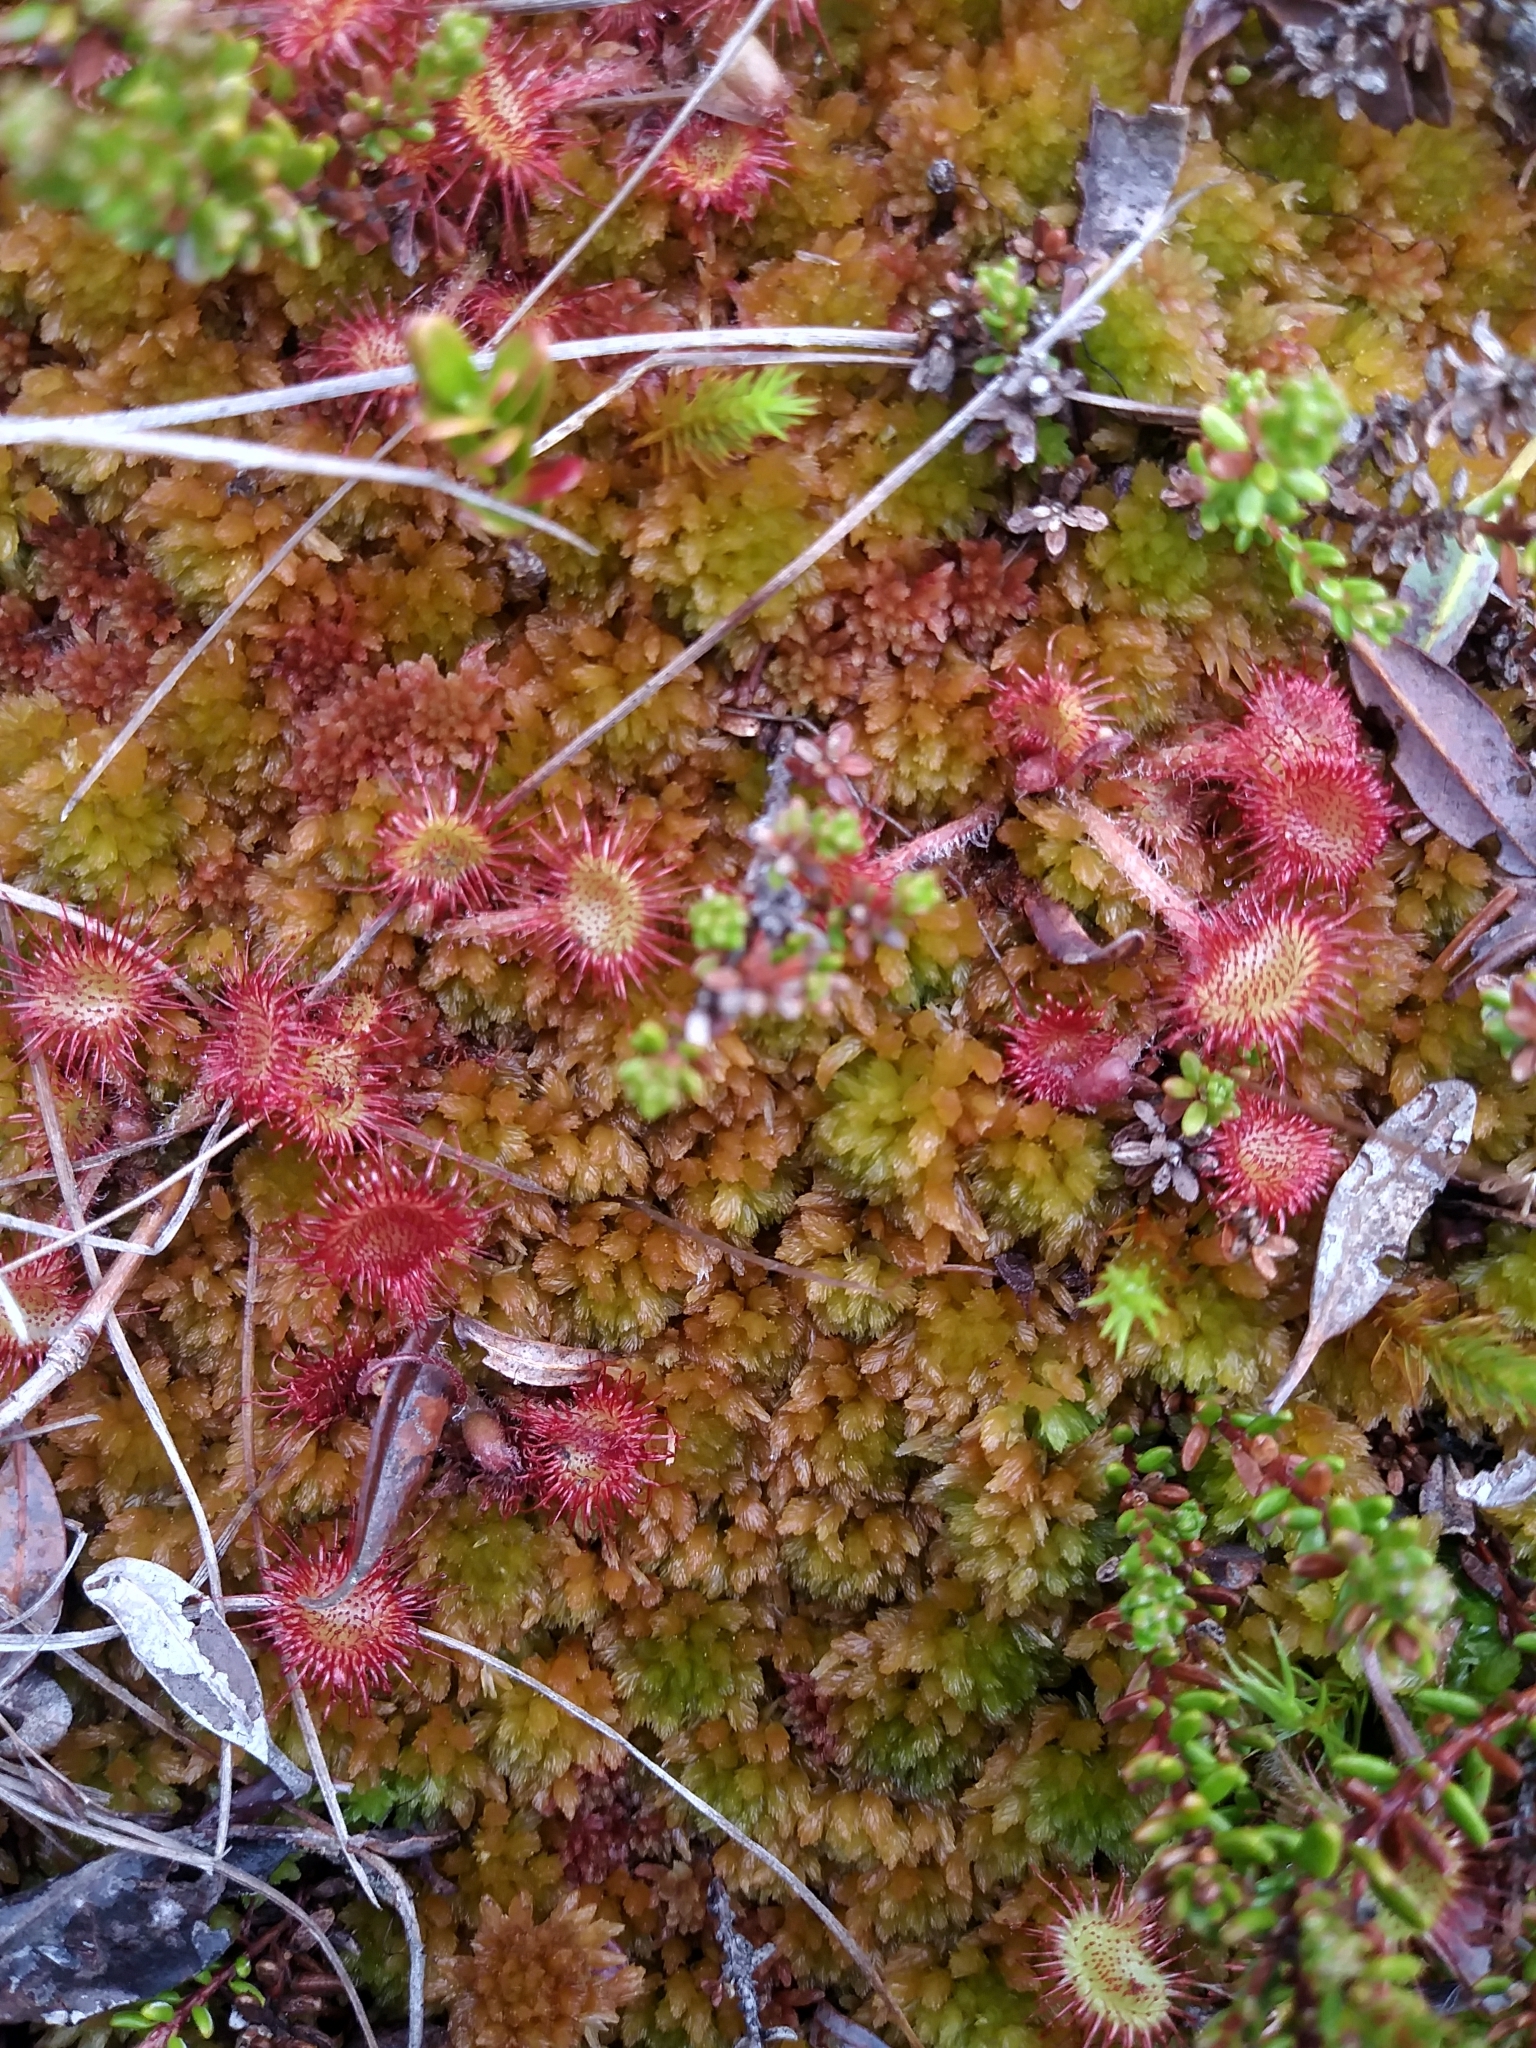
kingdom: Plantae
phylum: Bryophyta
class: Sphagnopsida
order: Sphagnales
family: Sphagnaceae
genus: Sphagnum
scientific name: Sphagnum flavicomans
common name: Northeastern peat moss
